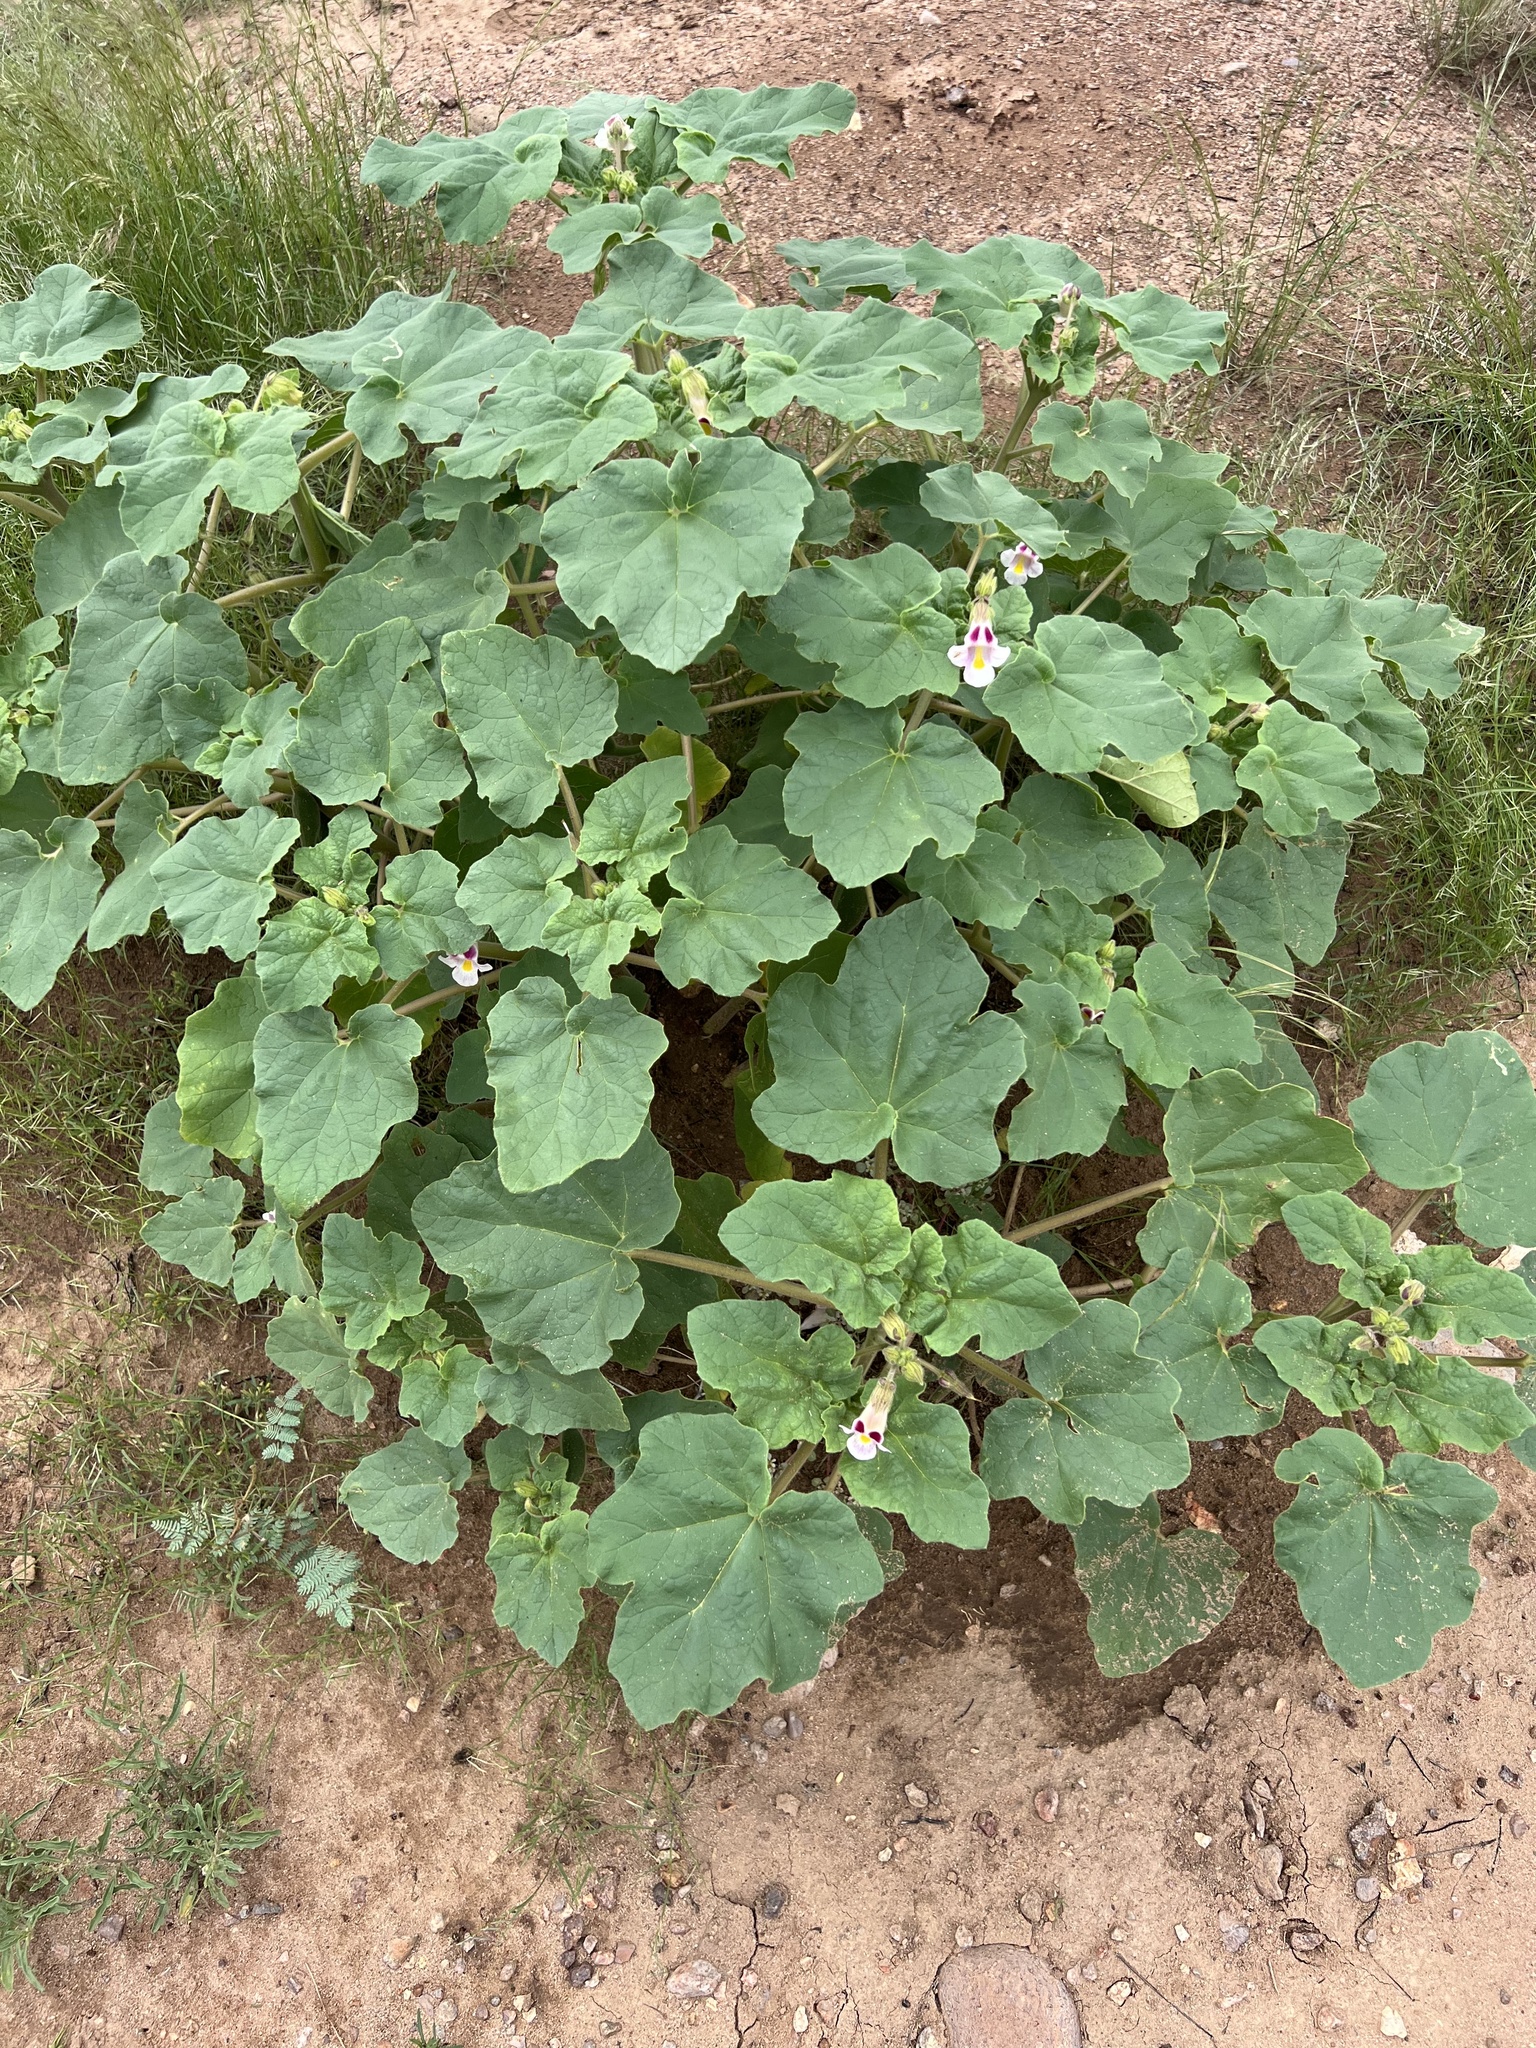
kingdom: Plantae
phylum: Tracheophyta
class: Magnoliopsida
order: Lamiales
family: Martyniaceae
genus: Proboscidea
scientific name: Proboscidea parviflora
